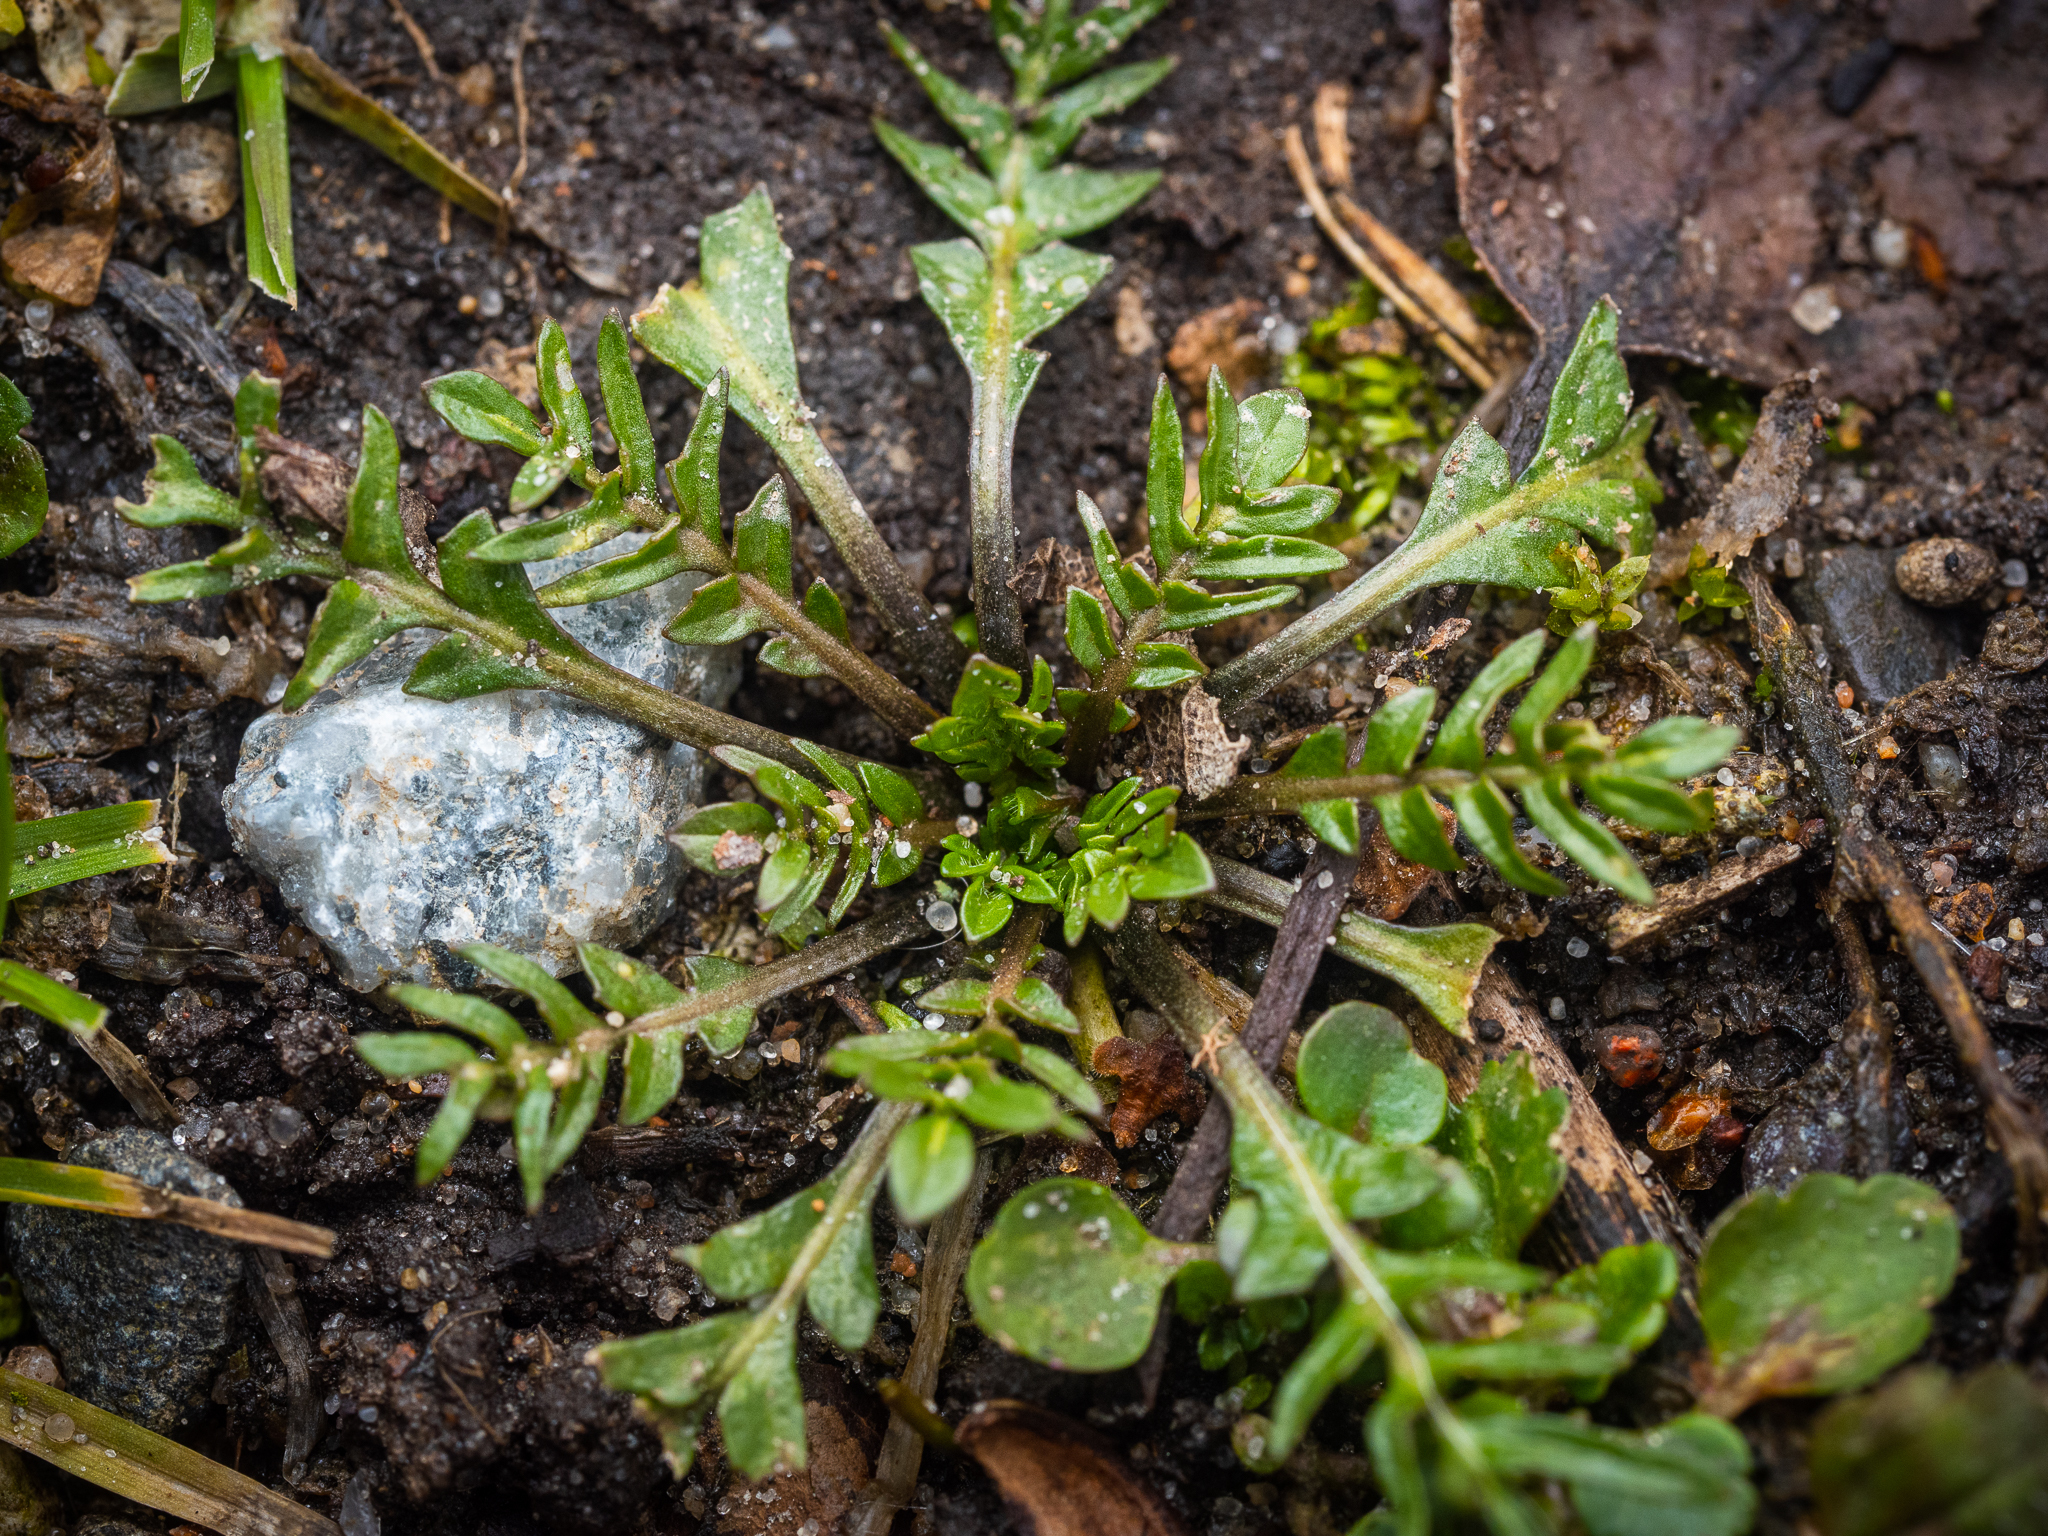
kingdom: Plantae
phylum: Tracheophyta
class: Magnoliopsida
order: Brassicales
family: Brassicaceae
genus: Capsella
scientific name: Capsella bursa-pastoris
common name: Shepherd's purse
